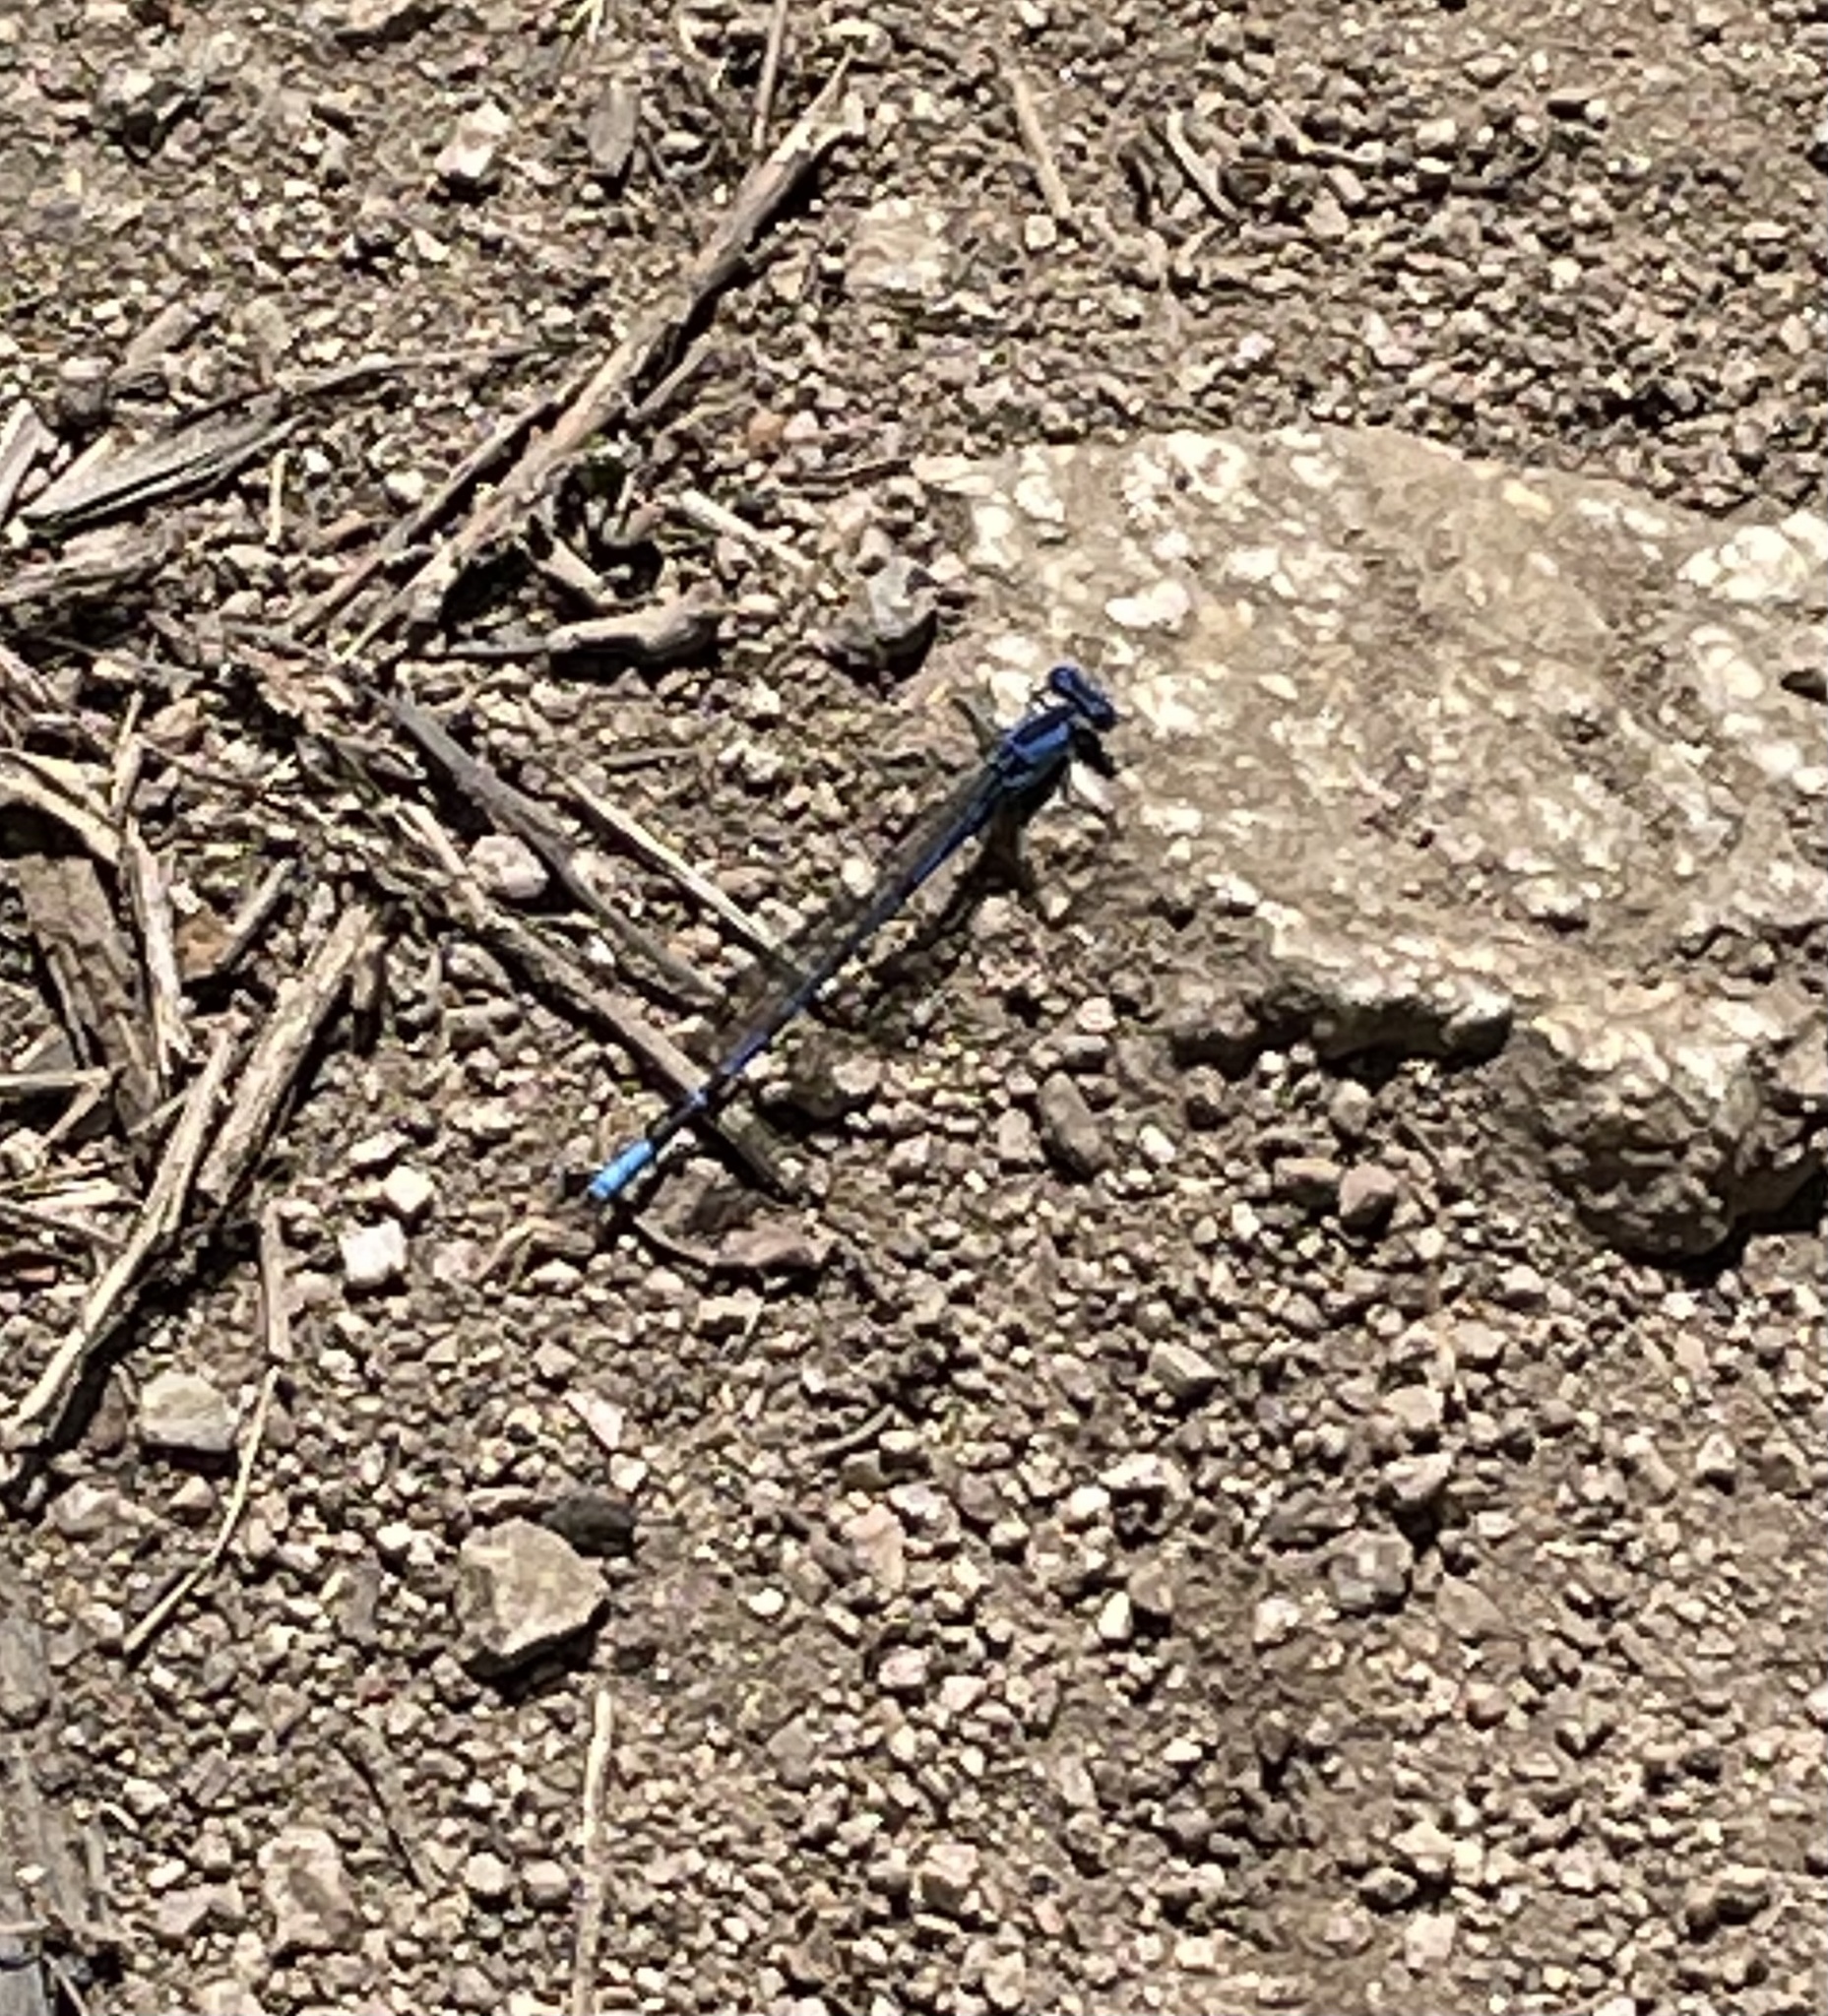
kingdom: Animalia
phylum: Arthropoda
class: Insecta
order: Odonata
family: Coenagrionidae
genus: Argia
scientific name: Argia vivida
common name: Vivid dancer
